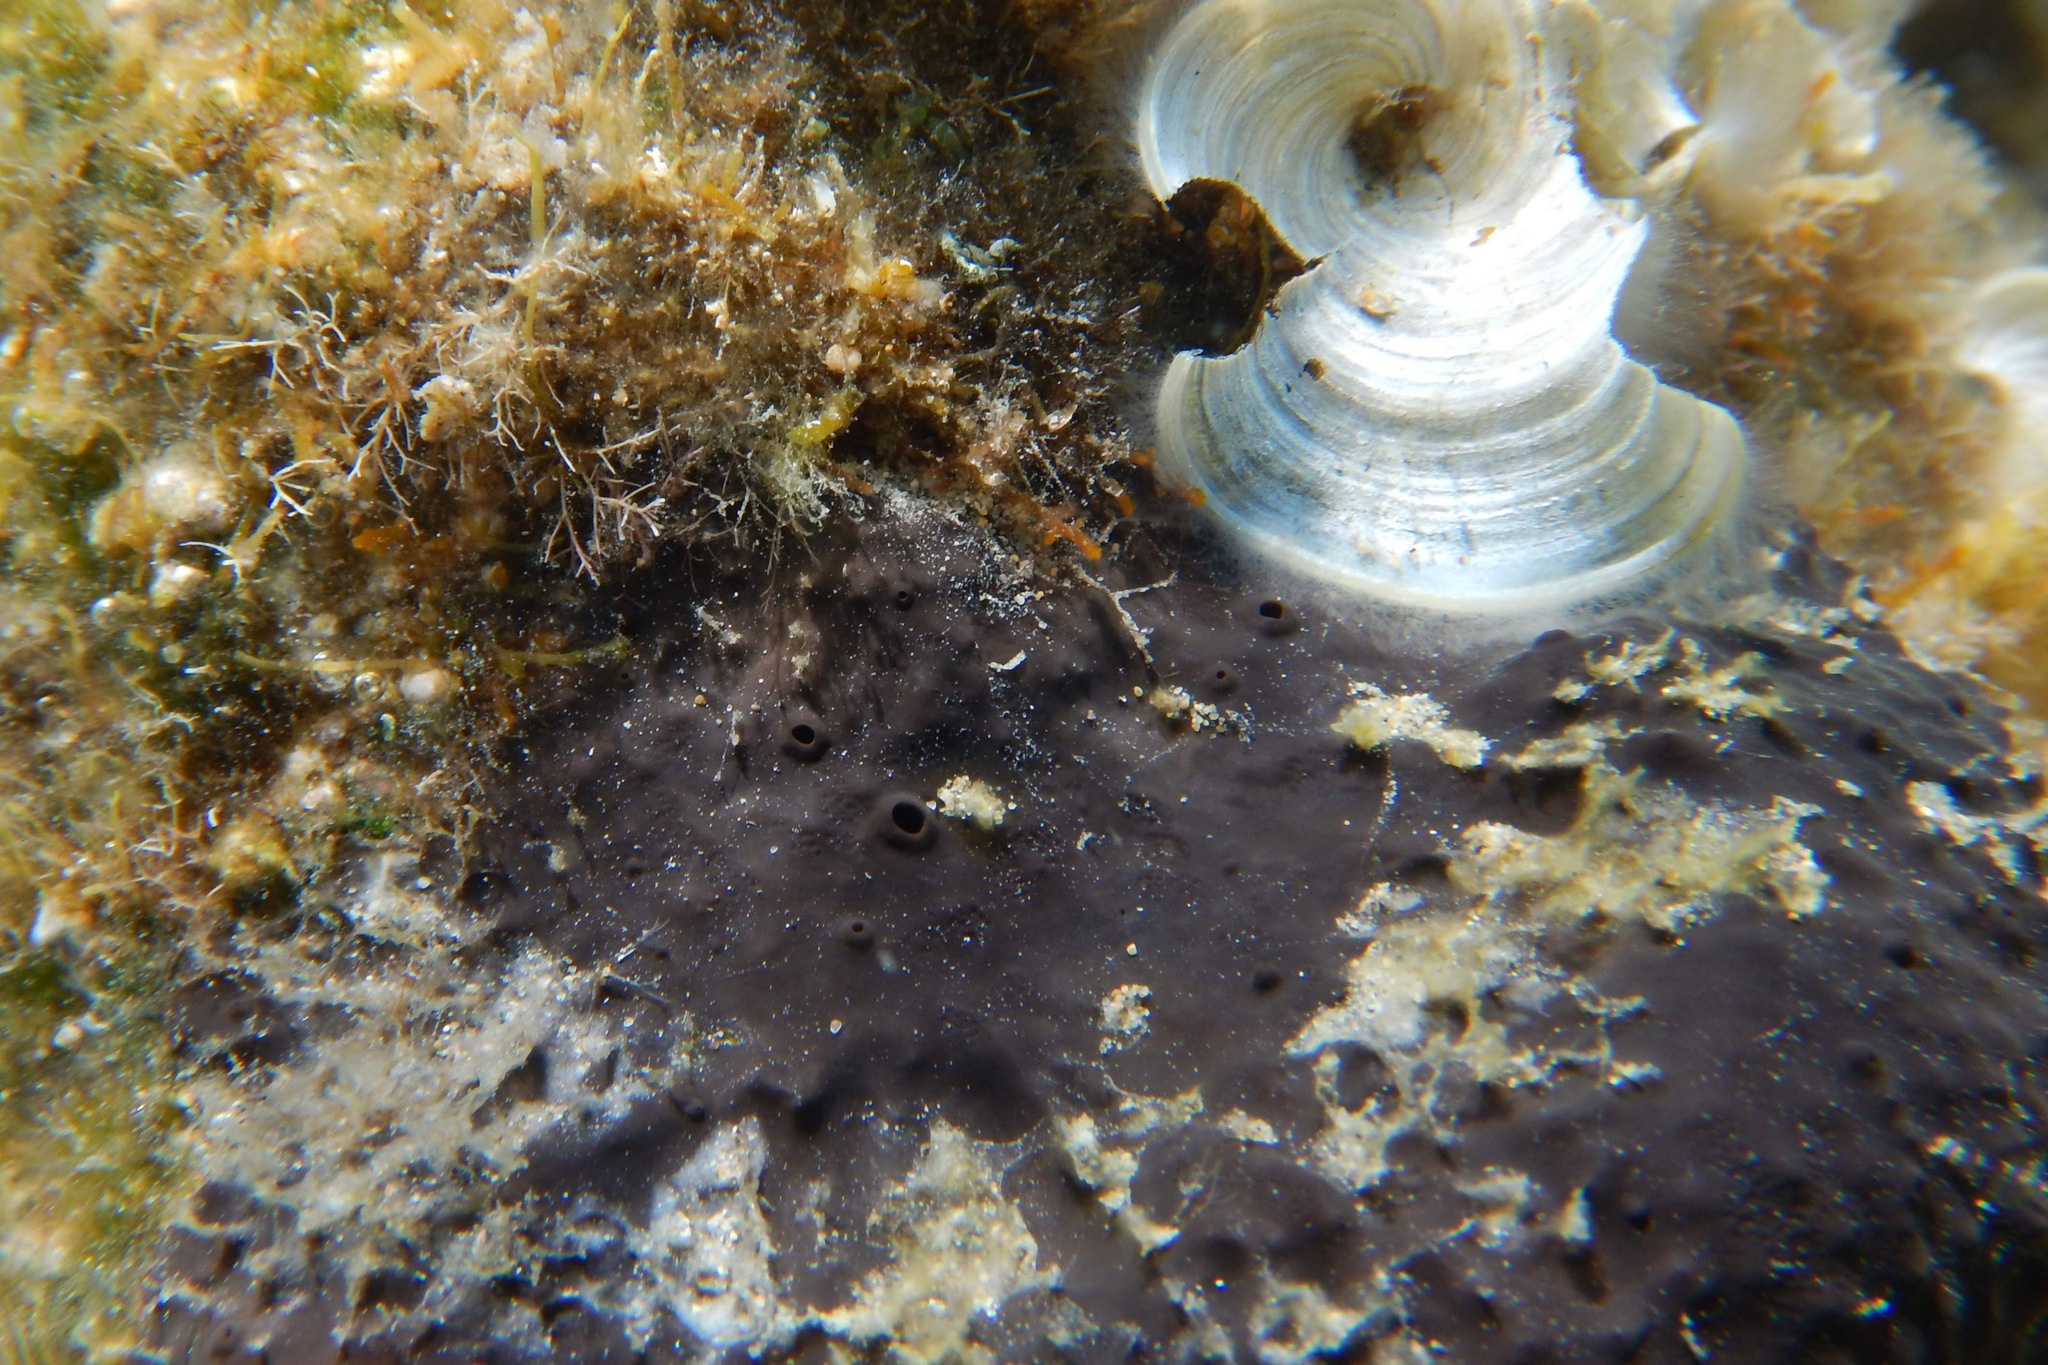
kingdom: Animalia
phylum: Porifera
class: Demospongiae
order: Dictyoceratida
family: Irciniidae
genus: Sarcotragus
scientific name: Sarcotragus spinosulus
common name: Black leather sponge
